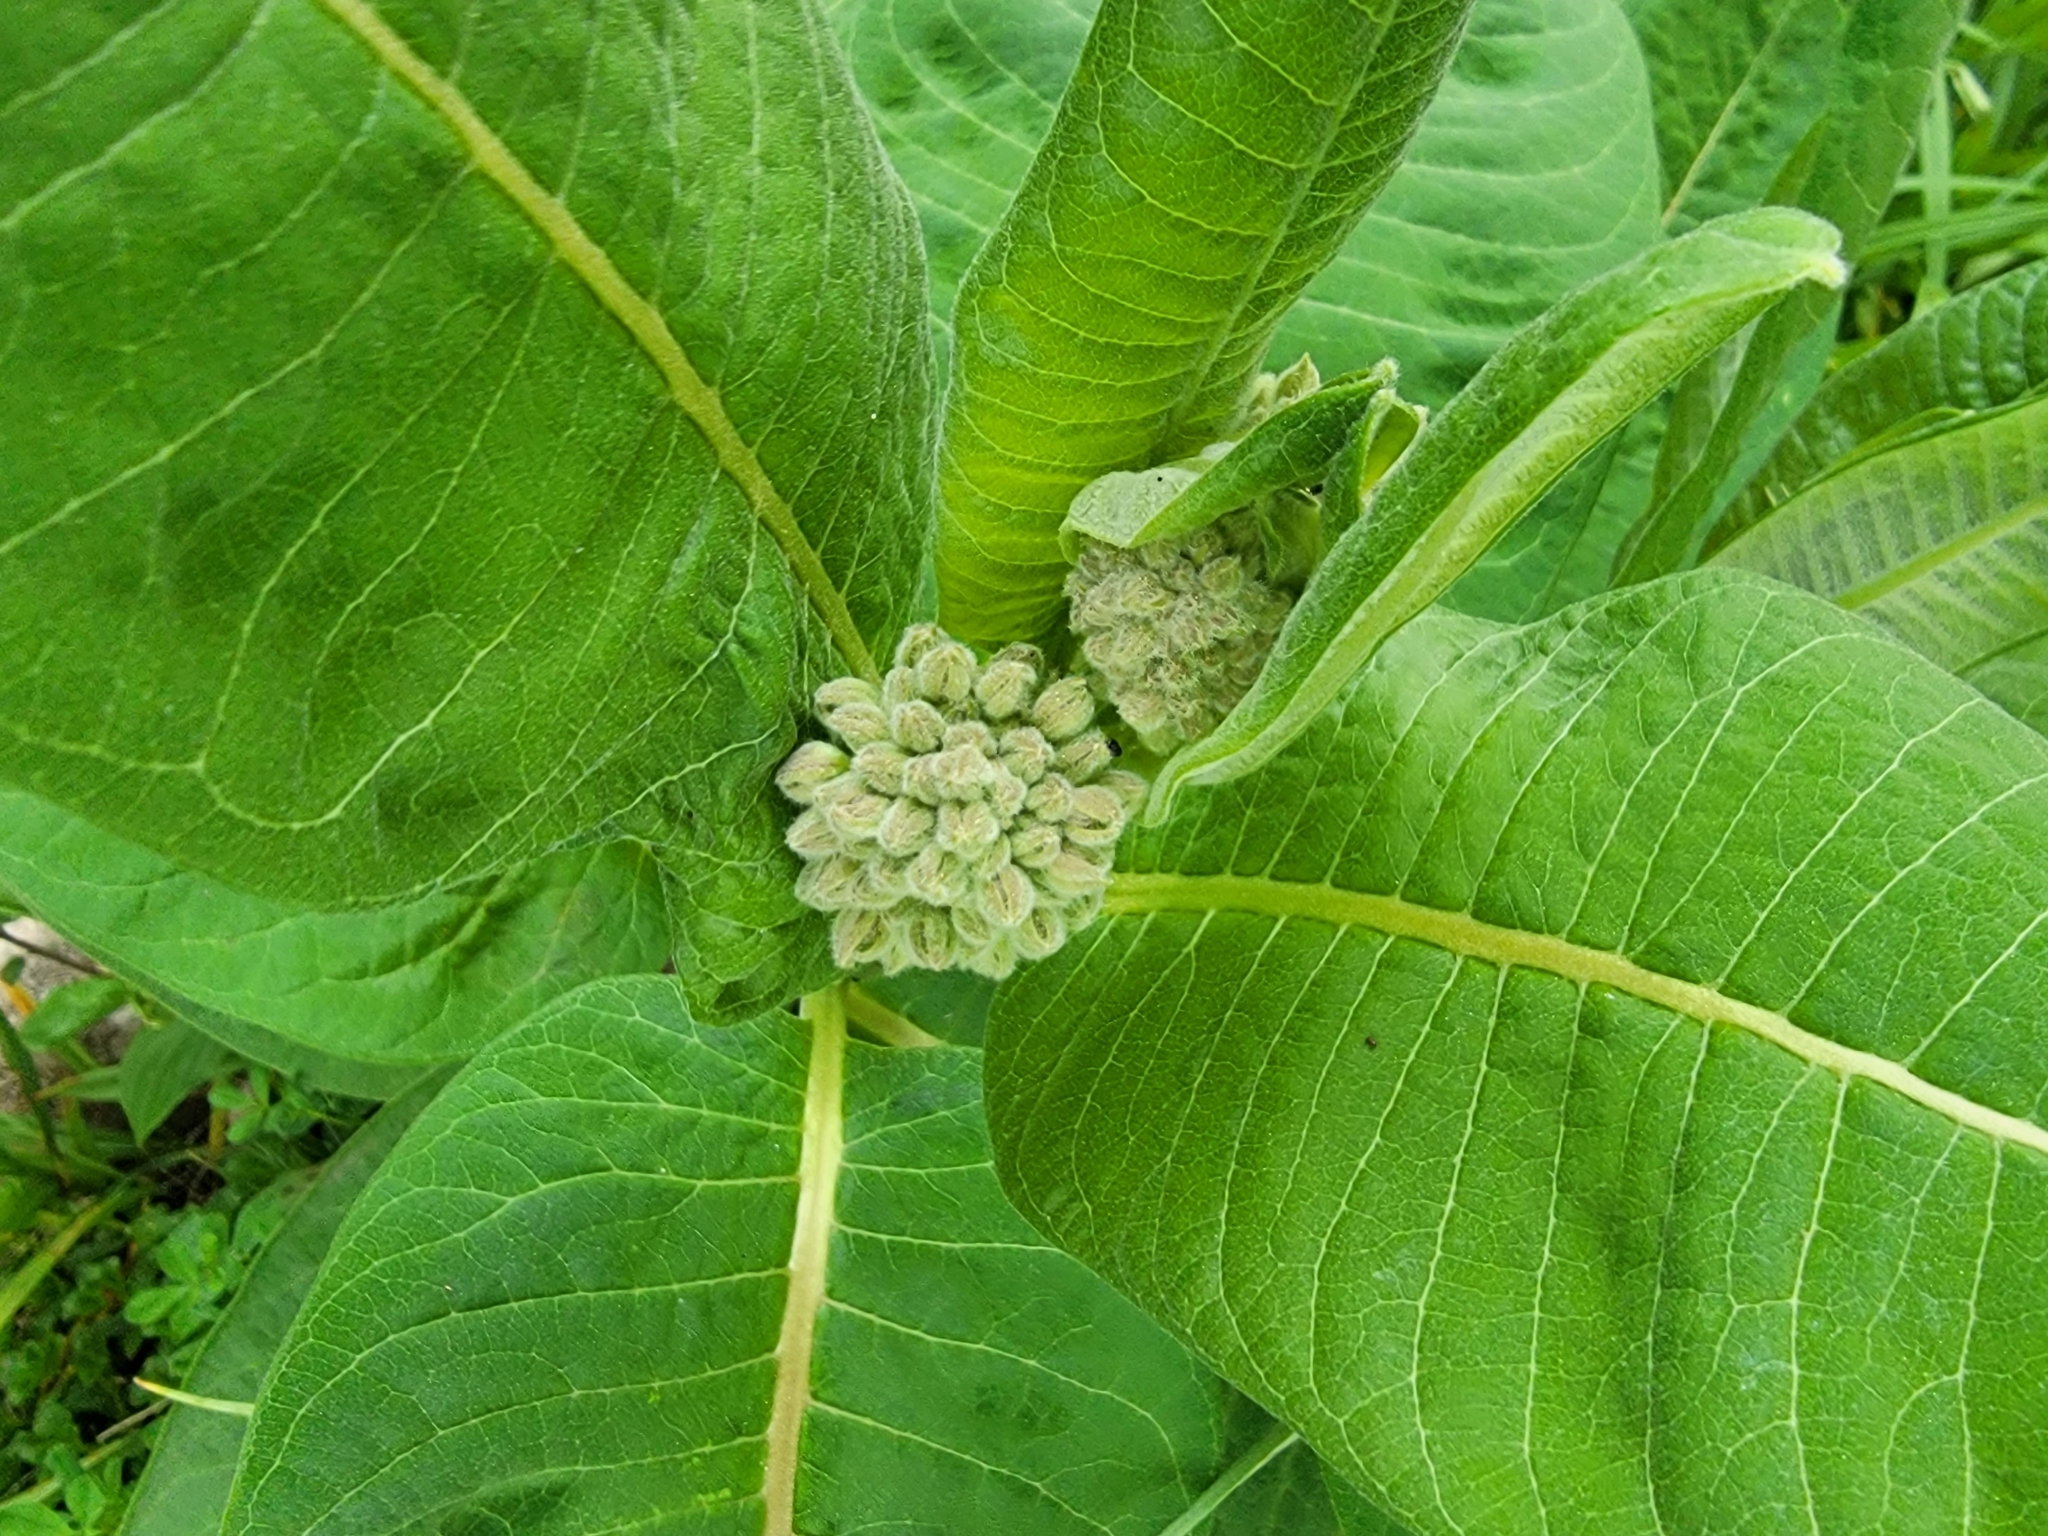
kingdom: Plantae
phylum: Tracheophyta
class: Magnoliopsida
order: Gentianales
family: Apocynaceae
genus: Asclepias
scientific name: Asclepias syriaca
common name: Common milkweed
